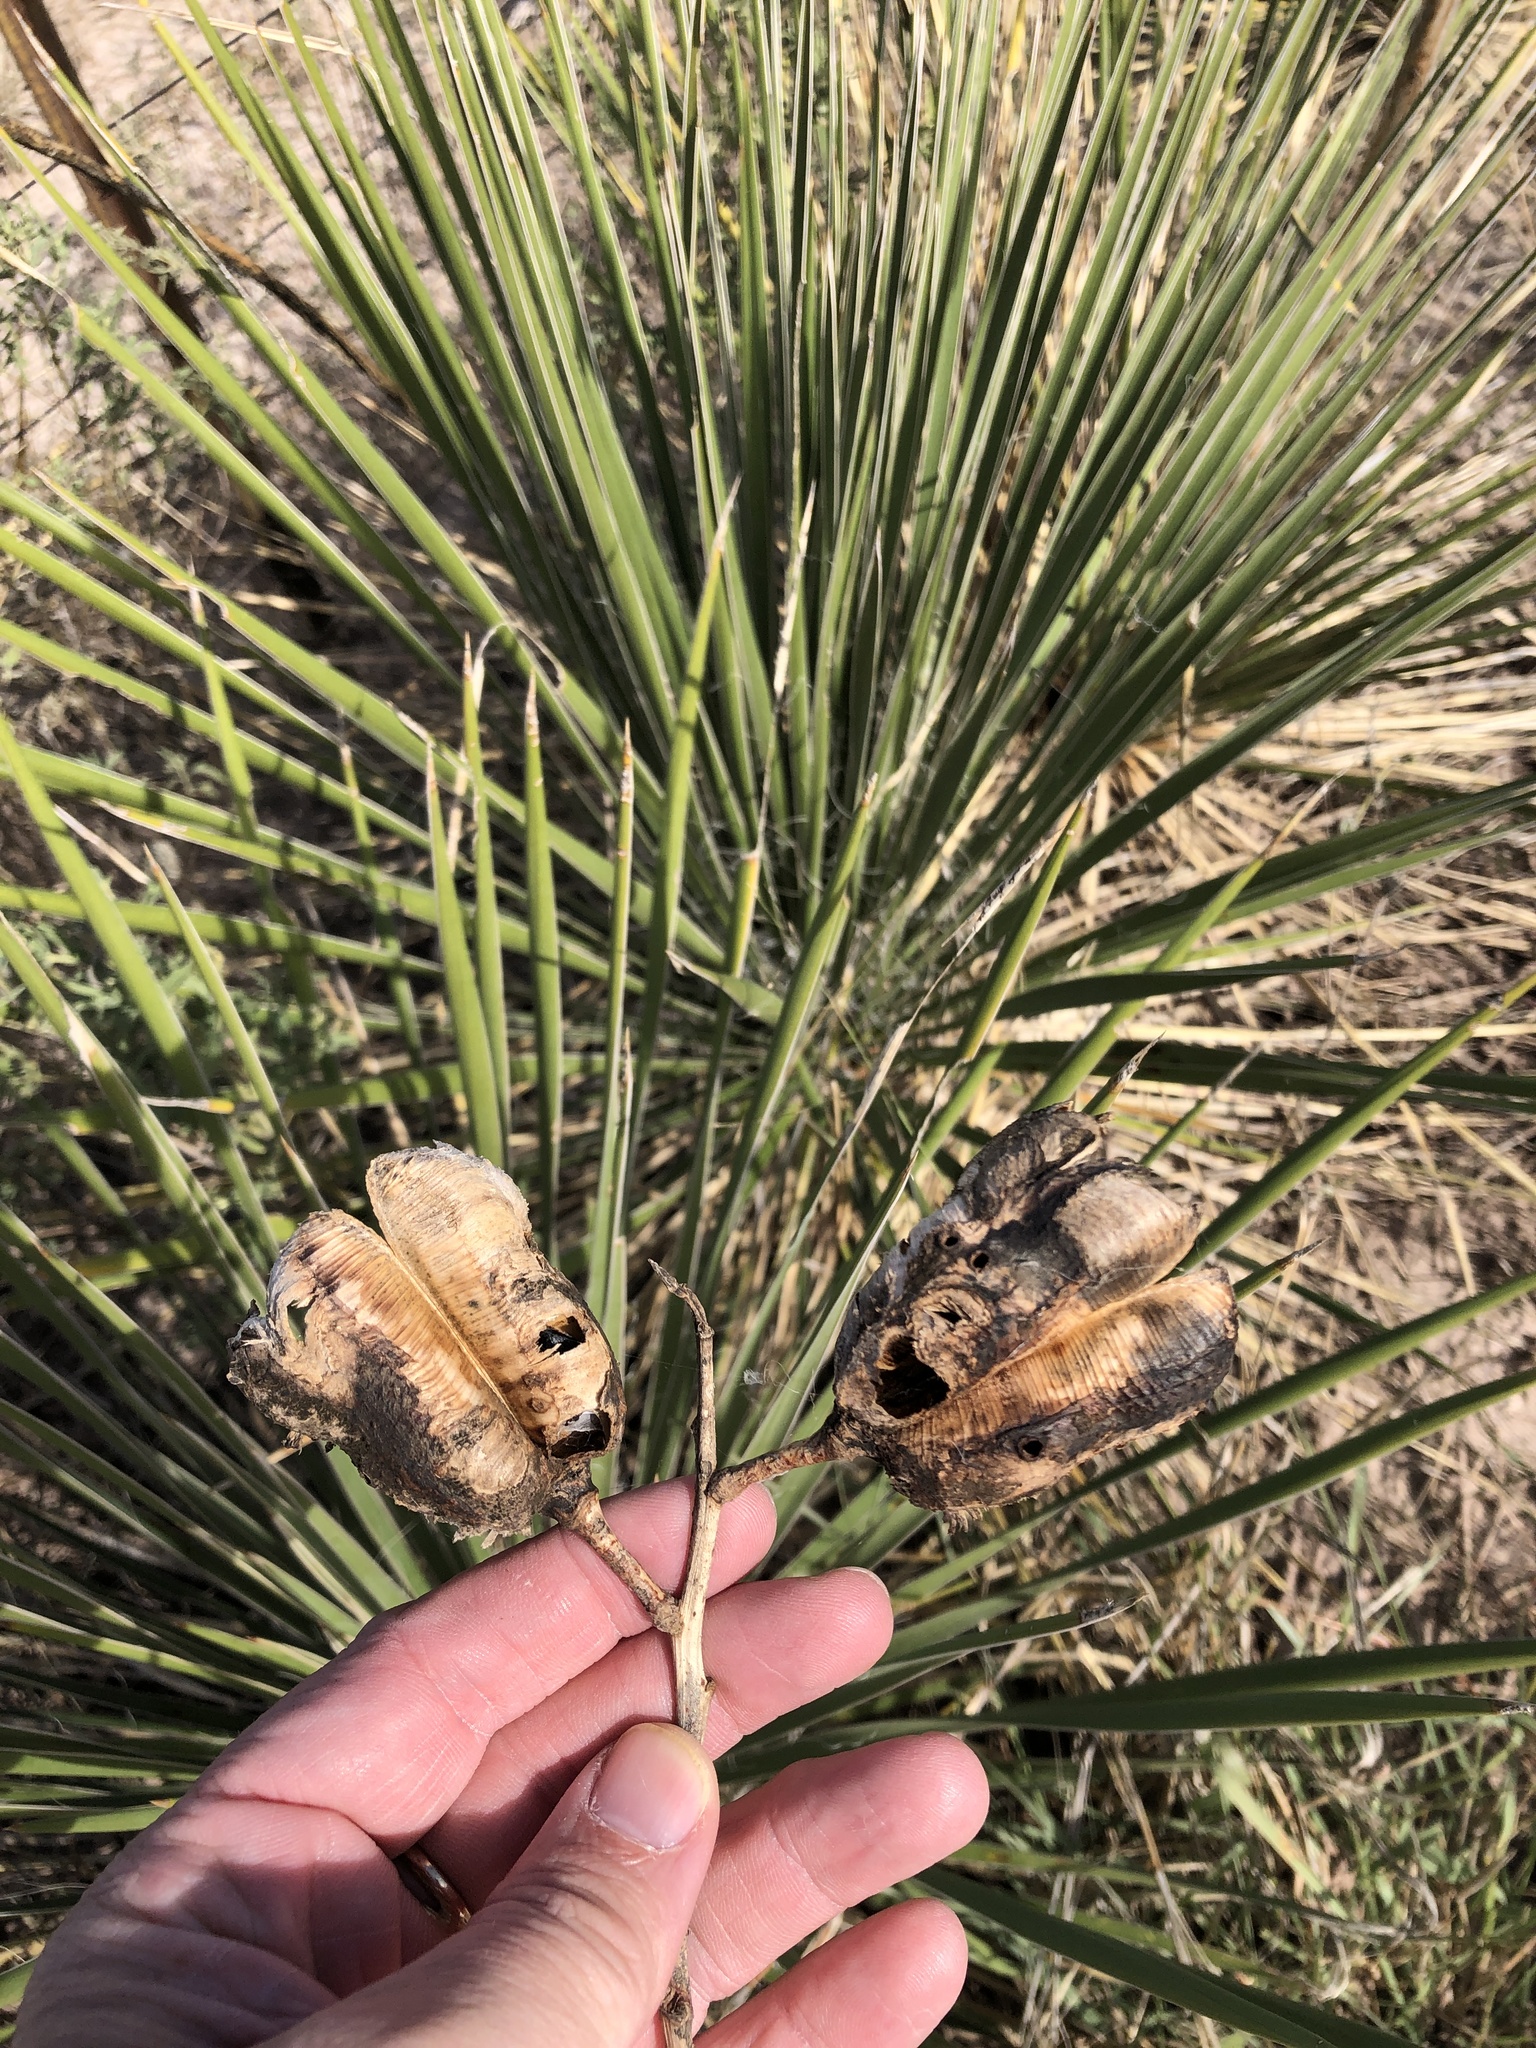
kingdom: Plantae
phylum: Tracheophyta
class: Liliopsida
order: Asparagales
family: Asparagaceae
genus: Yucca
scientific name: Yucca constricta
